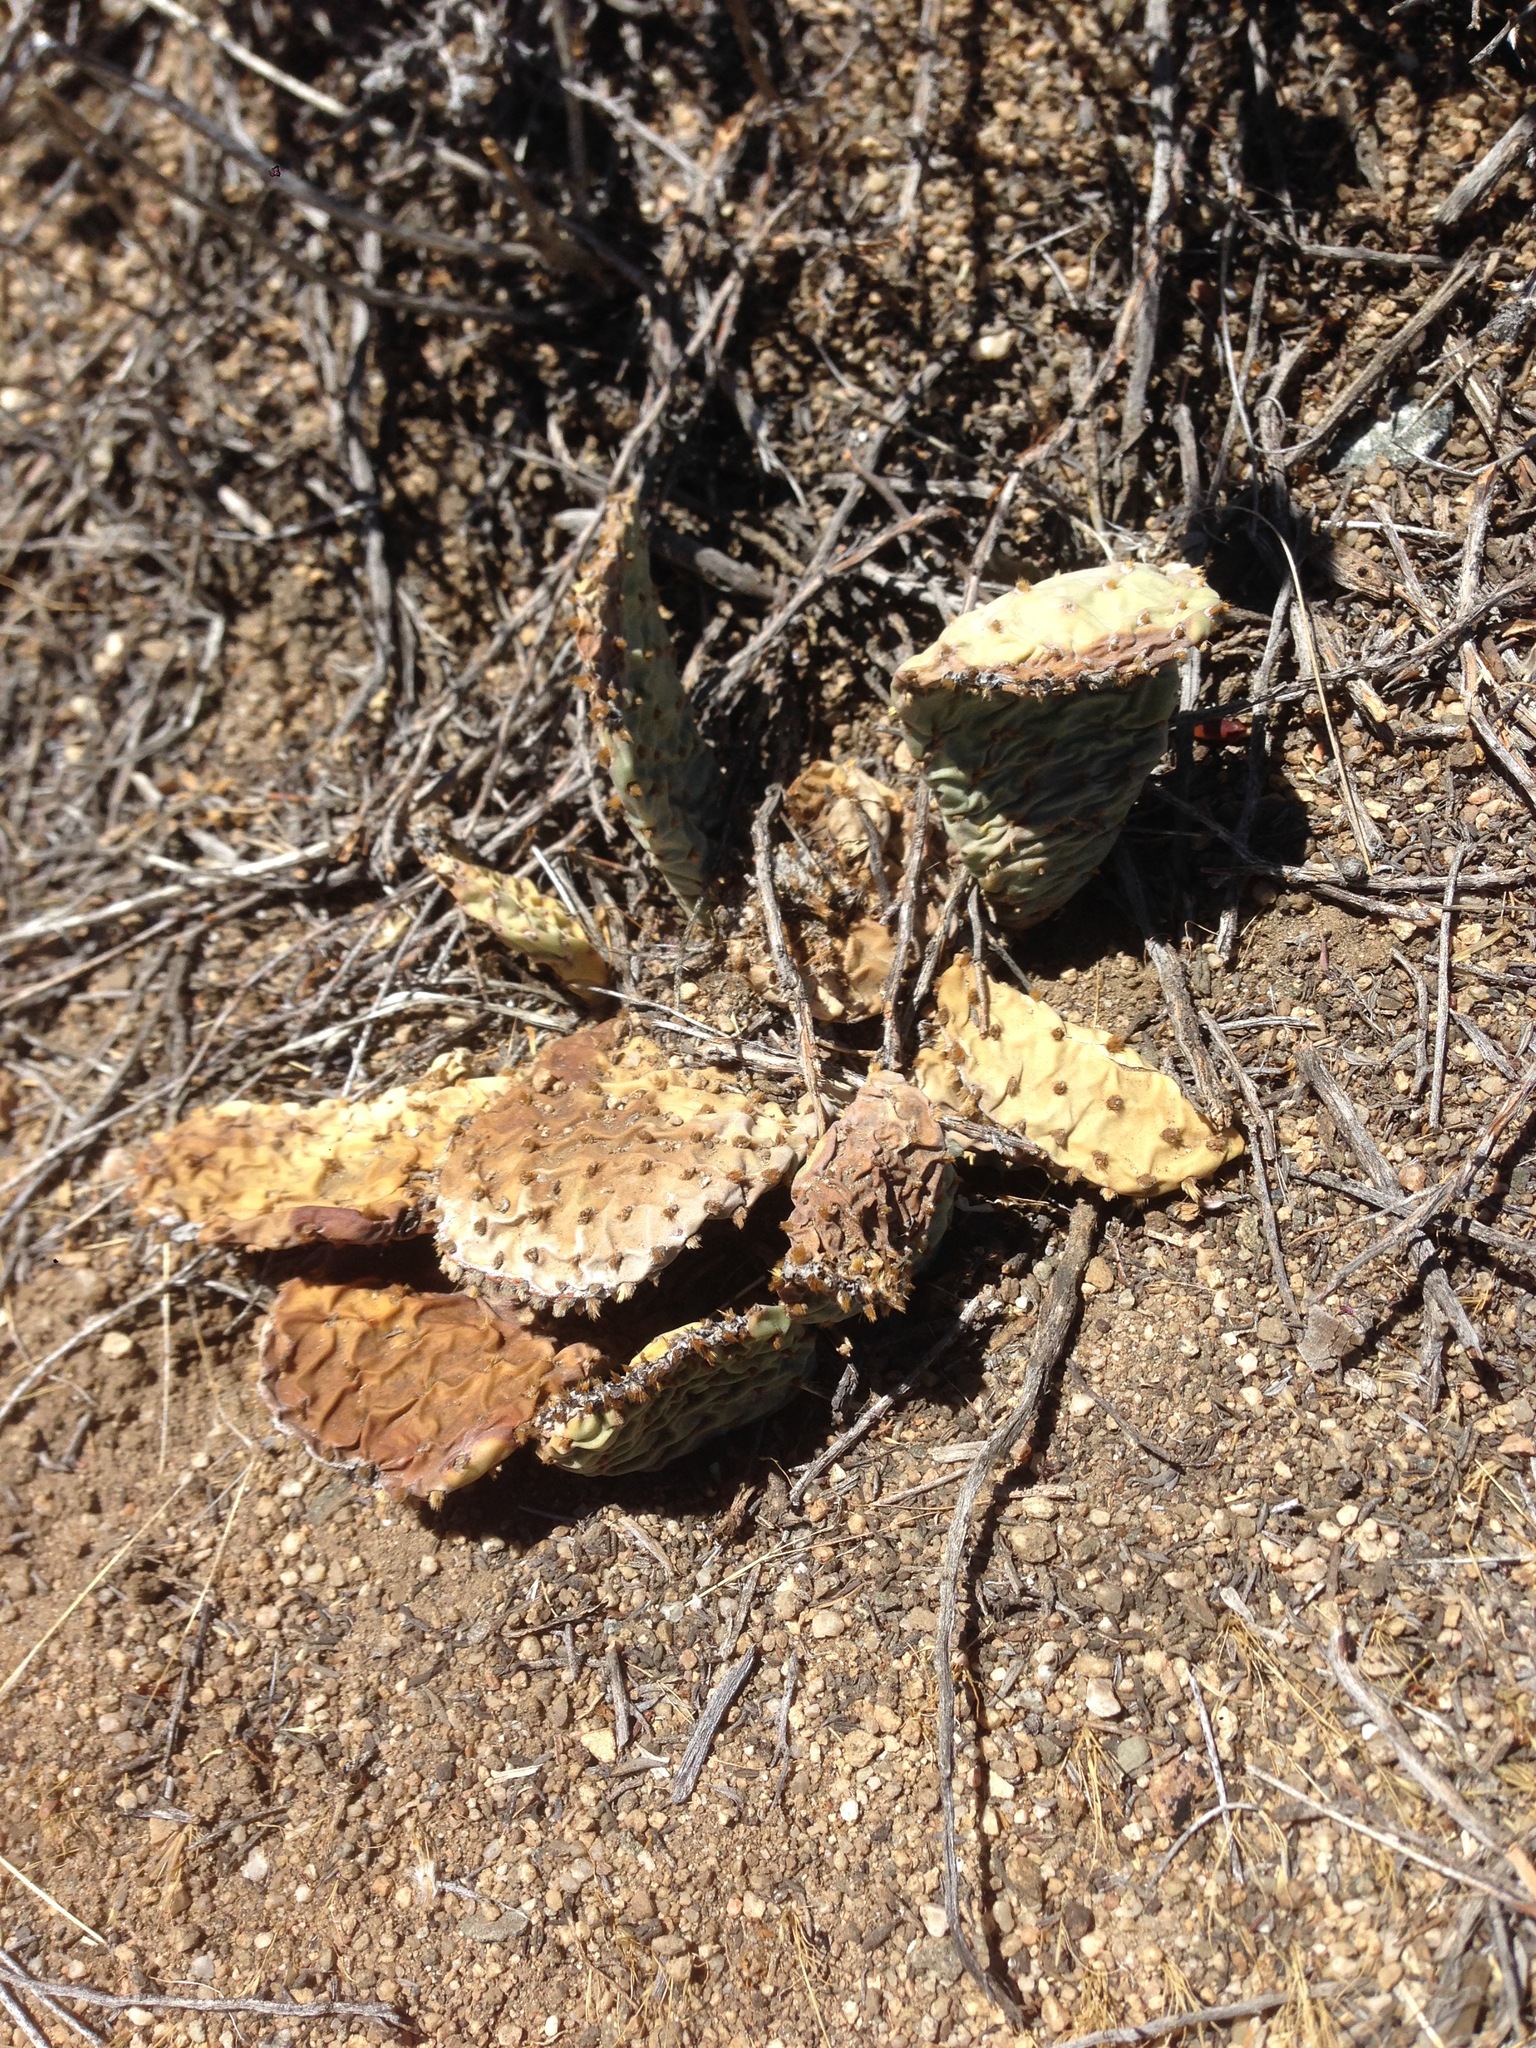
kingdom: Plantae
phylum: Tracheophyta
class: Magnoliopsida
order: Caryophyllales
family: Cactaceae
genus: Opuntia
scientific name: Opuntia basilaris
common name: Beavertail prickly-pear
